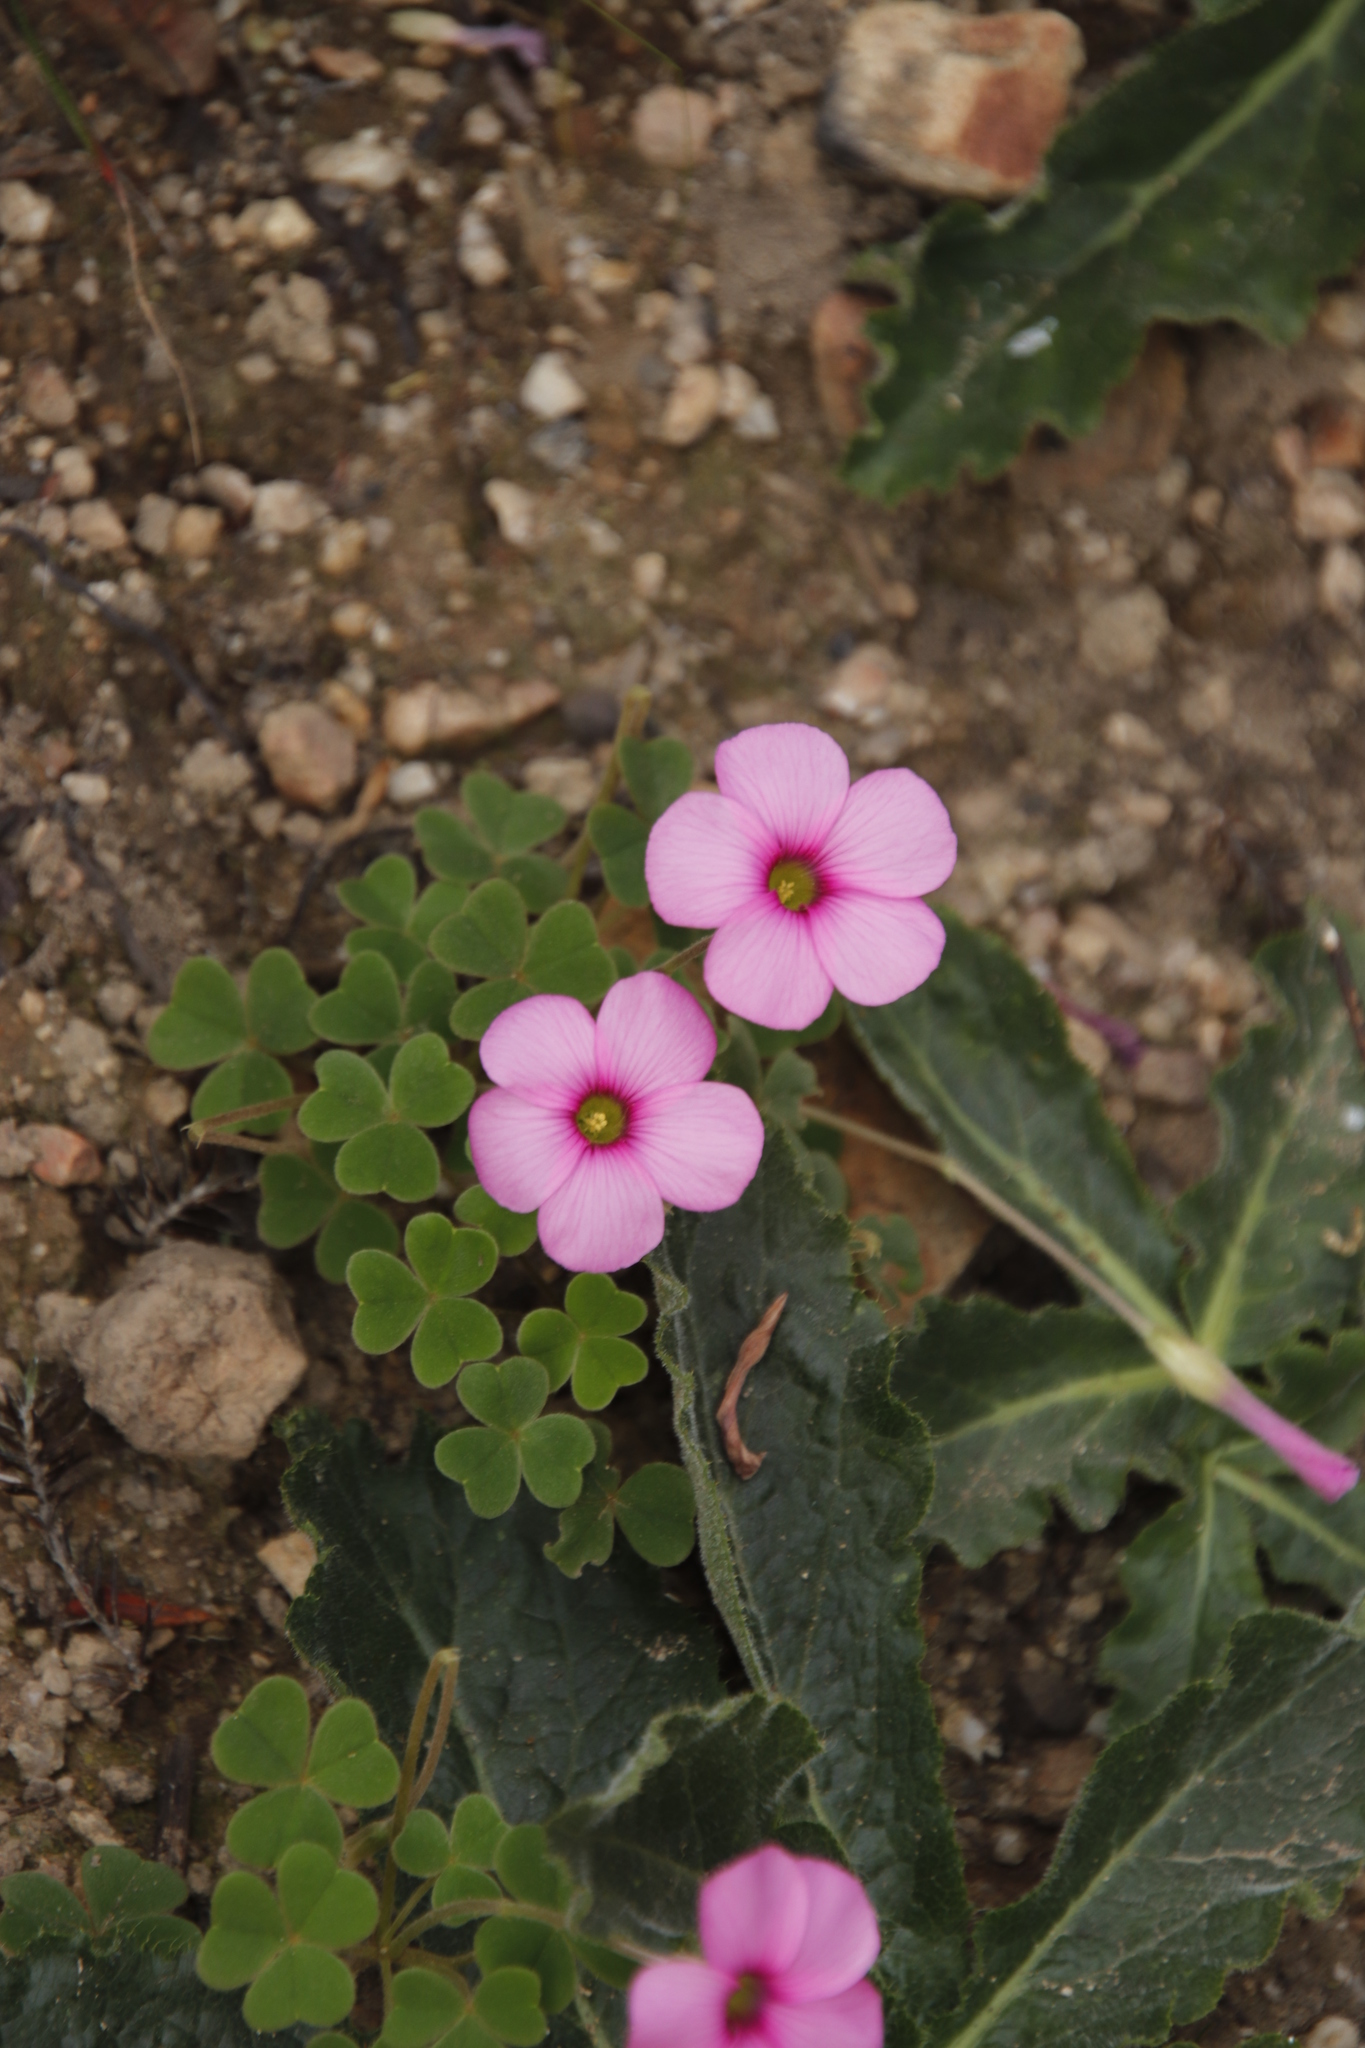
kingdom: Plantae
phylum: Tracheophyta
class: Magnoliopsida
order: Oxalidales
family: Oxalidaceae
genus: Oxalis
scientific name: Oxalis lanata
